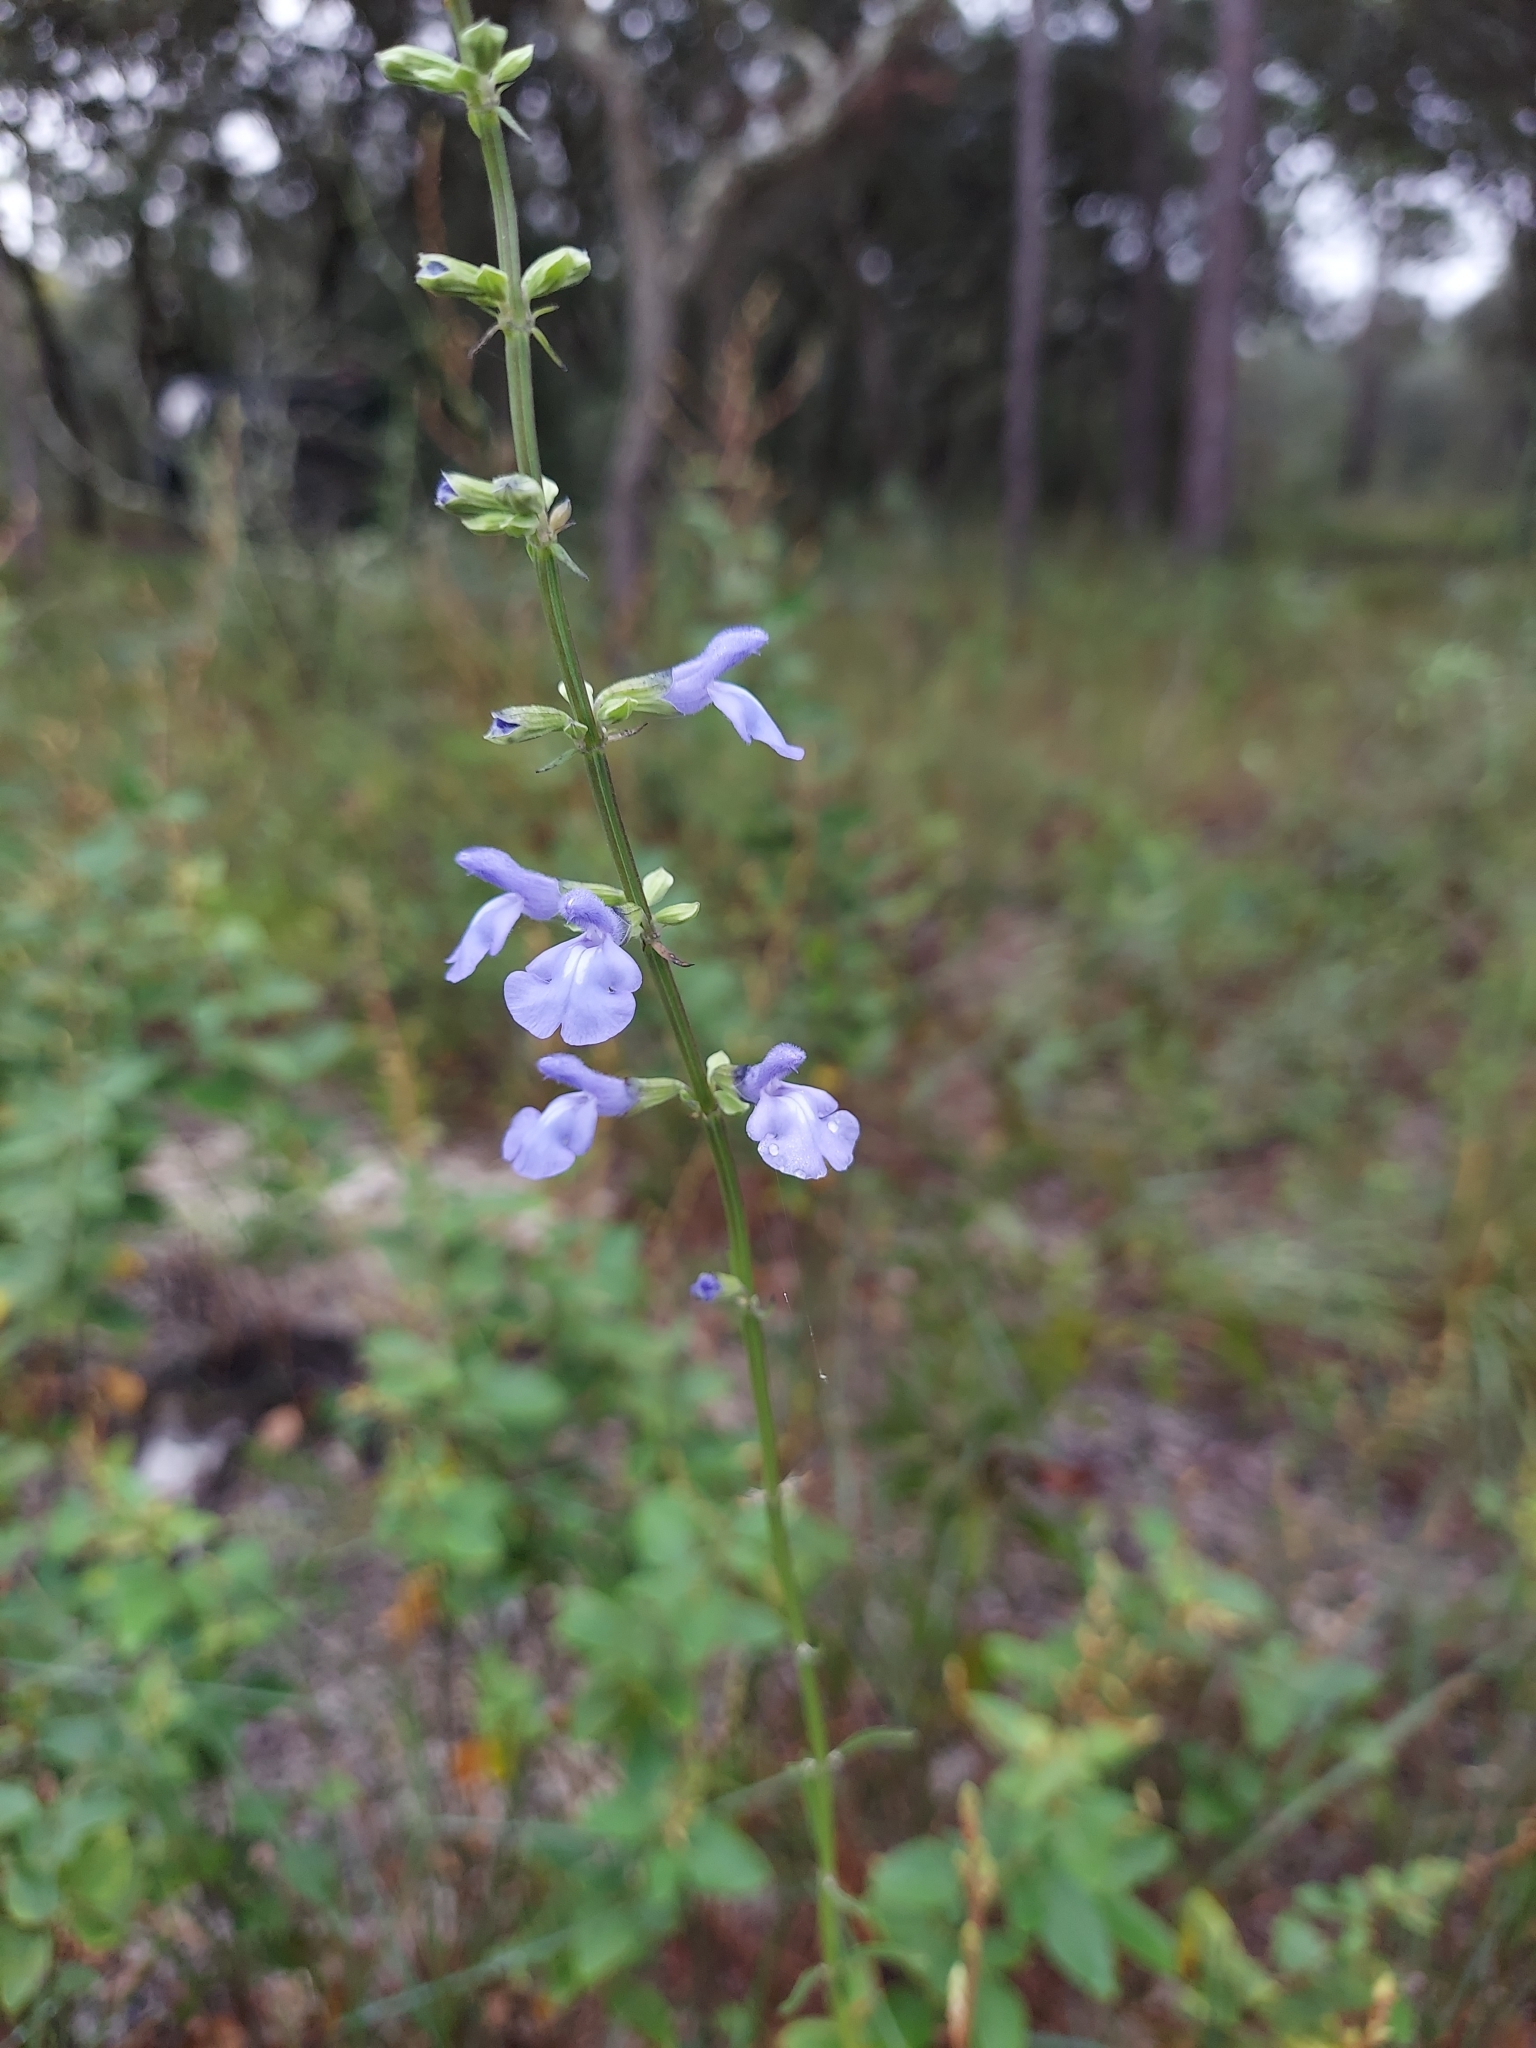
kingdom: Plantae
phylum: Tracheophyta
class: Magnoliopsida
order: Lamiales
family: Lamiaceae
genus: Salvia
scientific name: Salvia azurea
